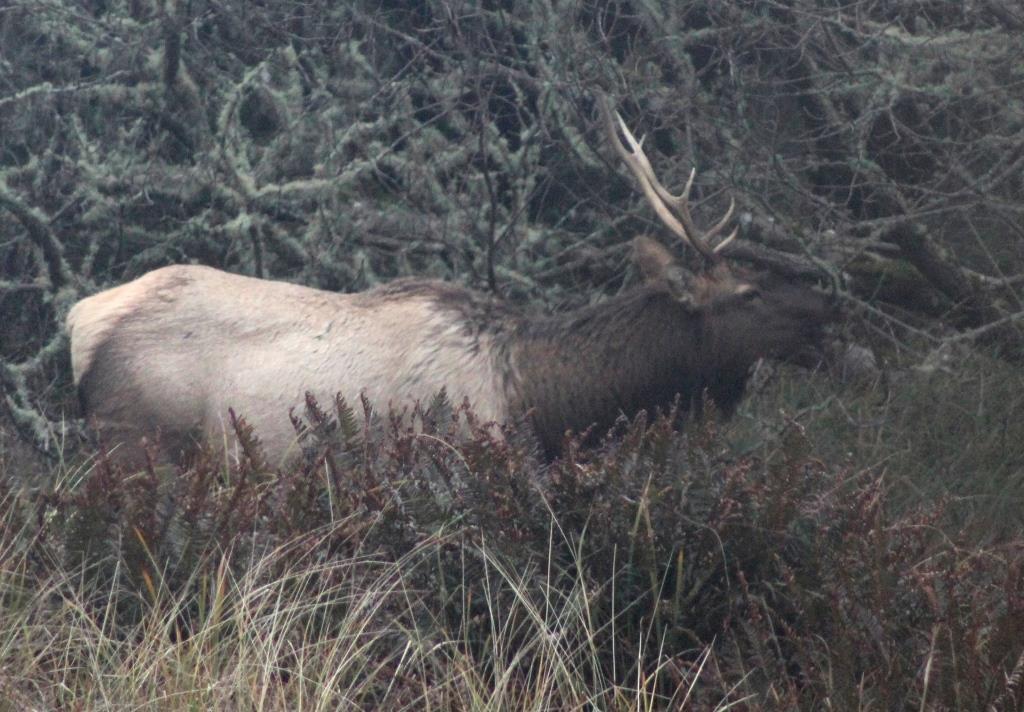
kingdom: Animalia
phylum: Chordata
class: Mammalia
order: Artiodactyla
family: Cervidae
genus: Cervus
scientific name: Cervus elaphus
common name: Red deer
